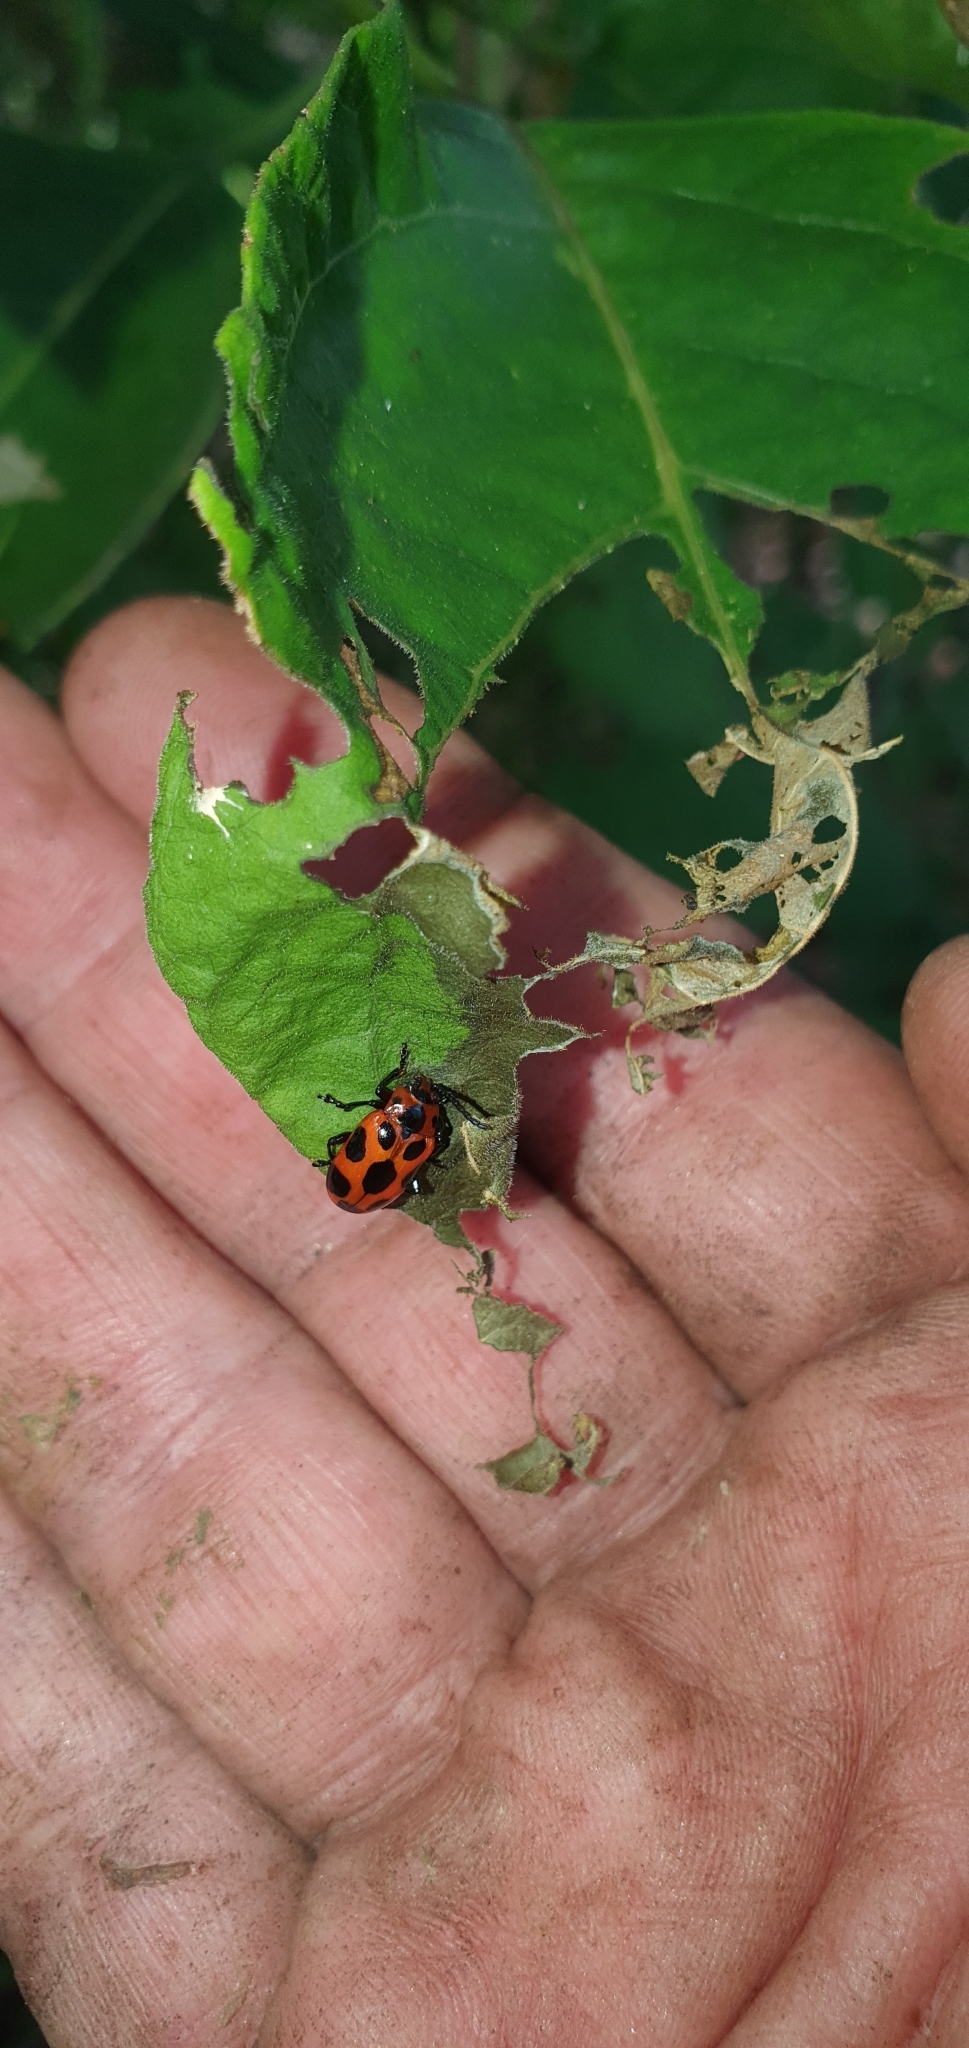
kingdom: Animalia
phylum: Arthropoda
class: Insecta
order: Coleoptera
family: Chrysomelidae
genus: Phyllocharis
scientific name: Phyllocharis
